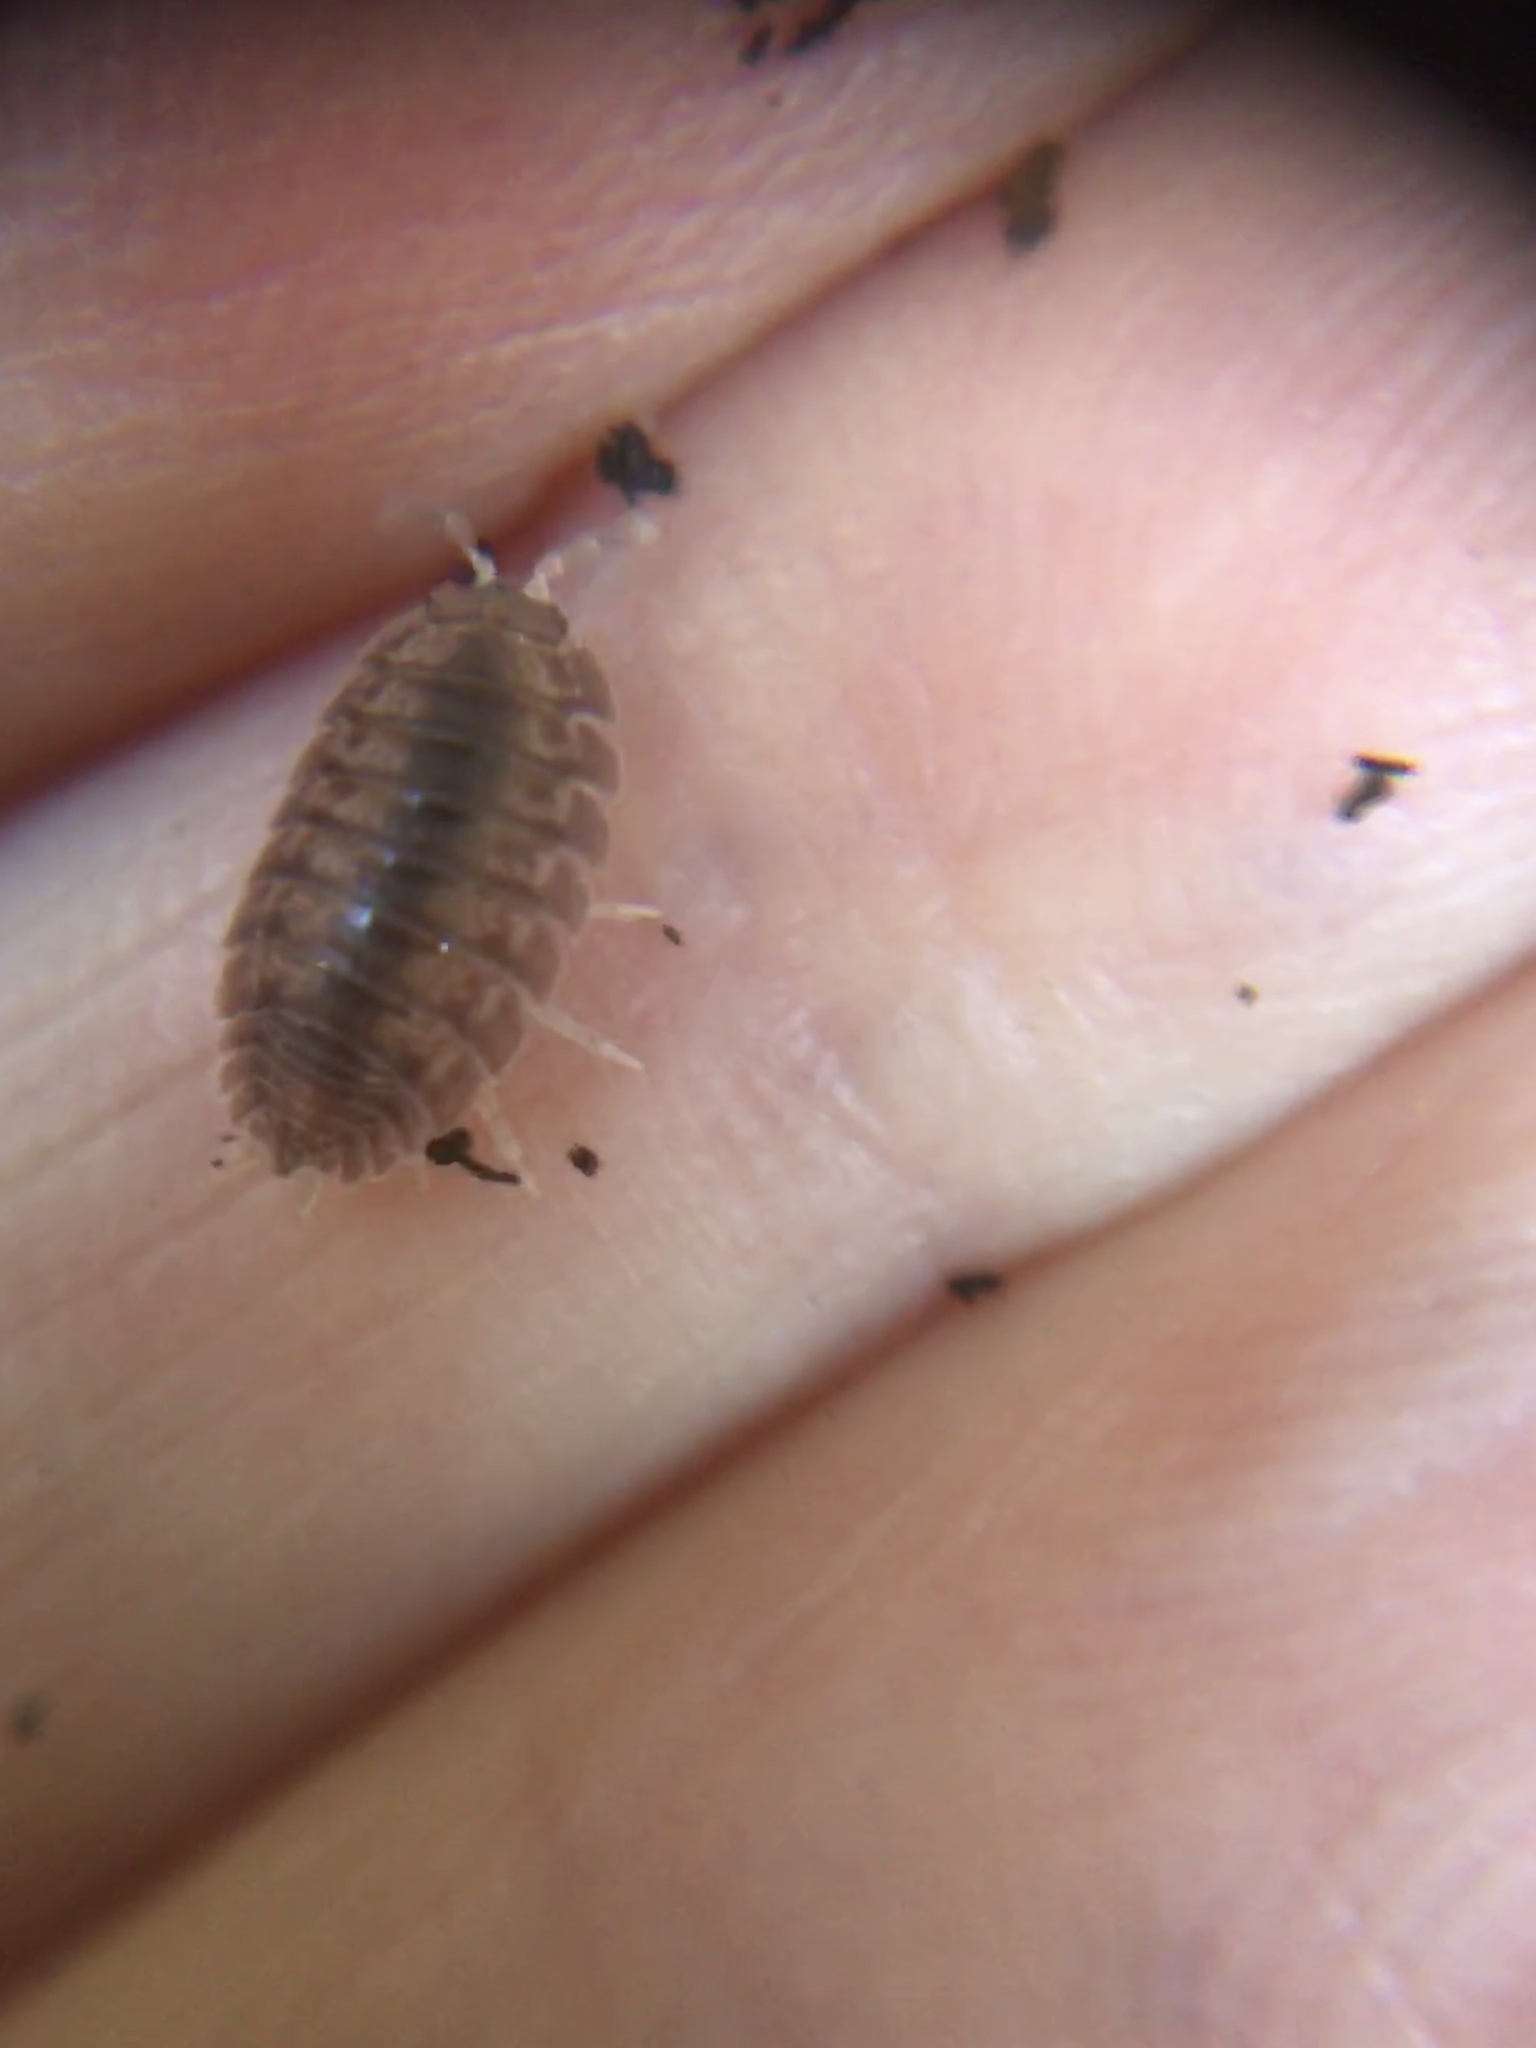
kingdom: Animalia
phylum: Arthropoda
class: Malacostraca
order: Isopoda
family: Porcellionidae
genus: Porcellio
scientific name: Porcellio dilatatus
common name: Isopod
